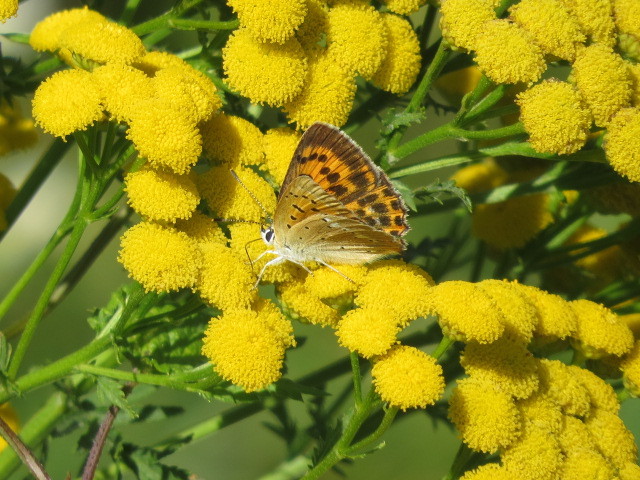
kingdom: Animalia
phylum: Arthropoda
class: Insecta
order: Lepidoptera
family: Lycaenidae
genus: Lycaena
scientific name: Lycaena virgaureae
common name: Scarce copper
